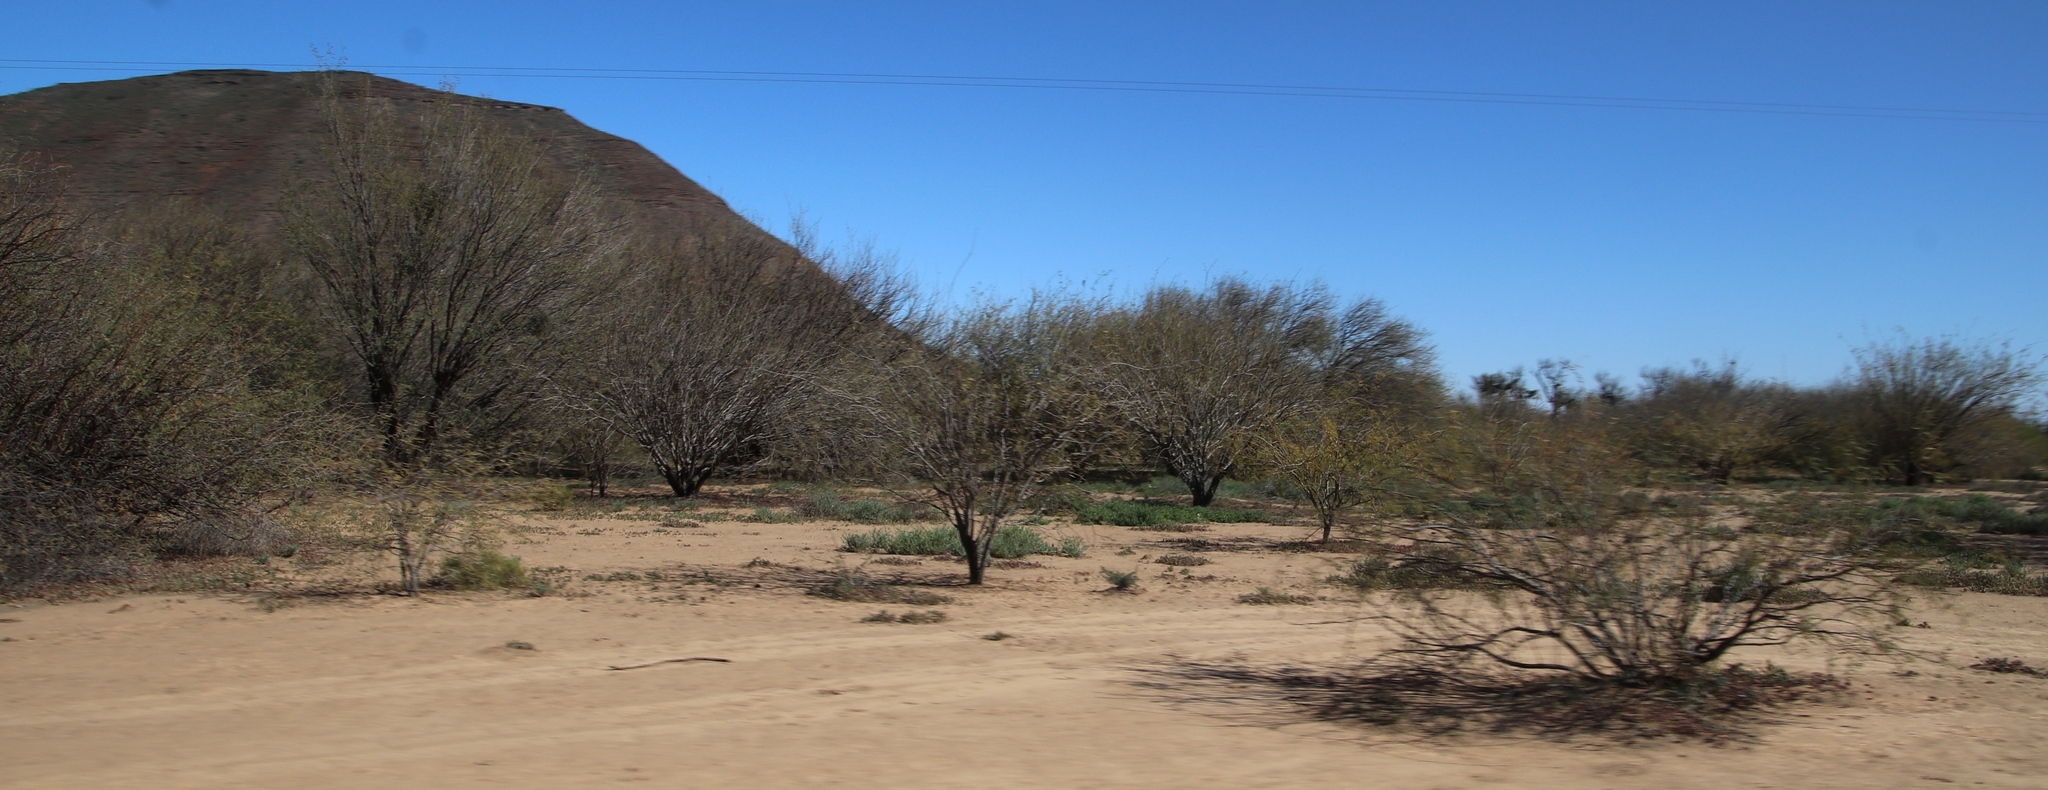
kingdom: Plantae
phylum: Tracheophyta
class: Magnoliopsida
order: Fabales
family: Fabaceae
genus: Prosopis
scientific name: Prosopis pubescens
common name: Screw-bean
